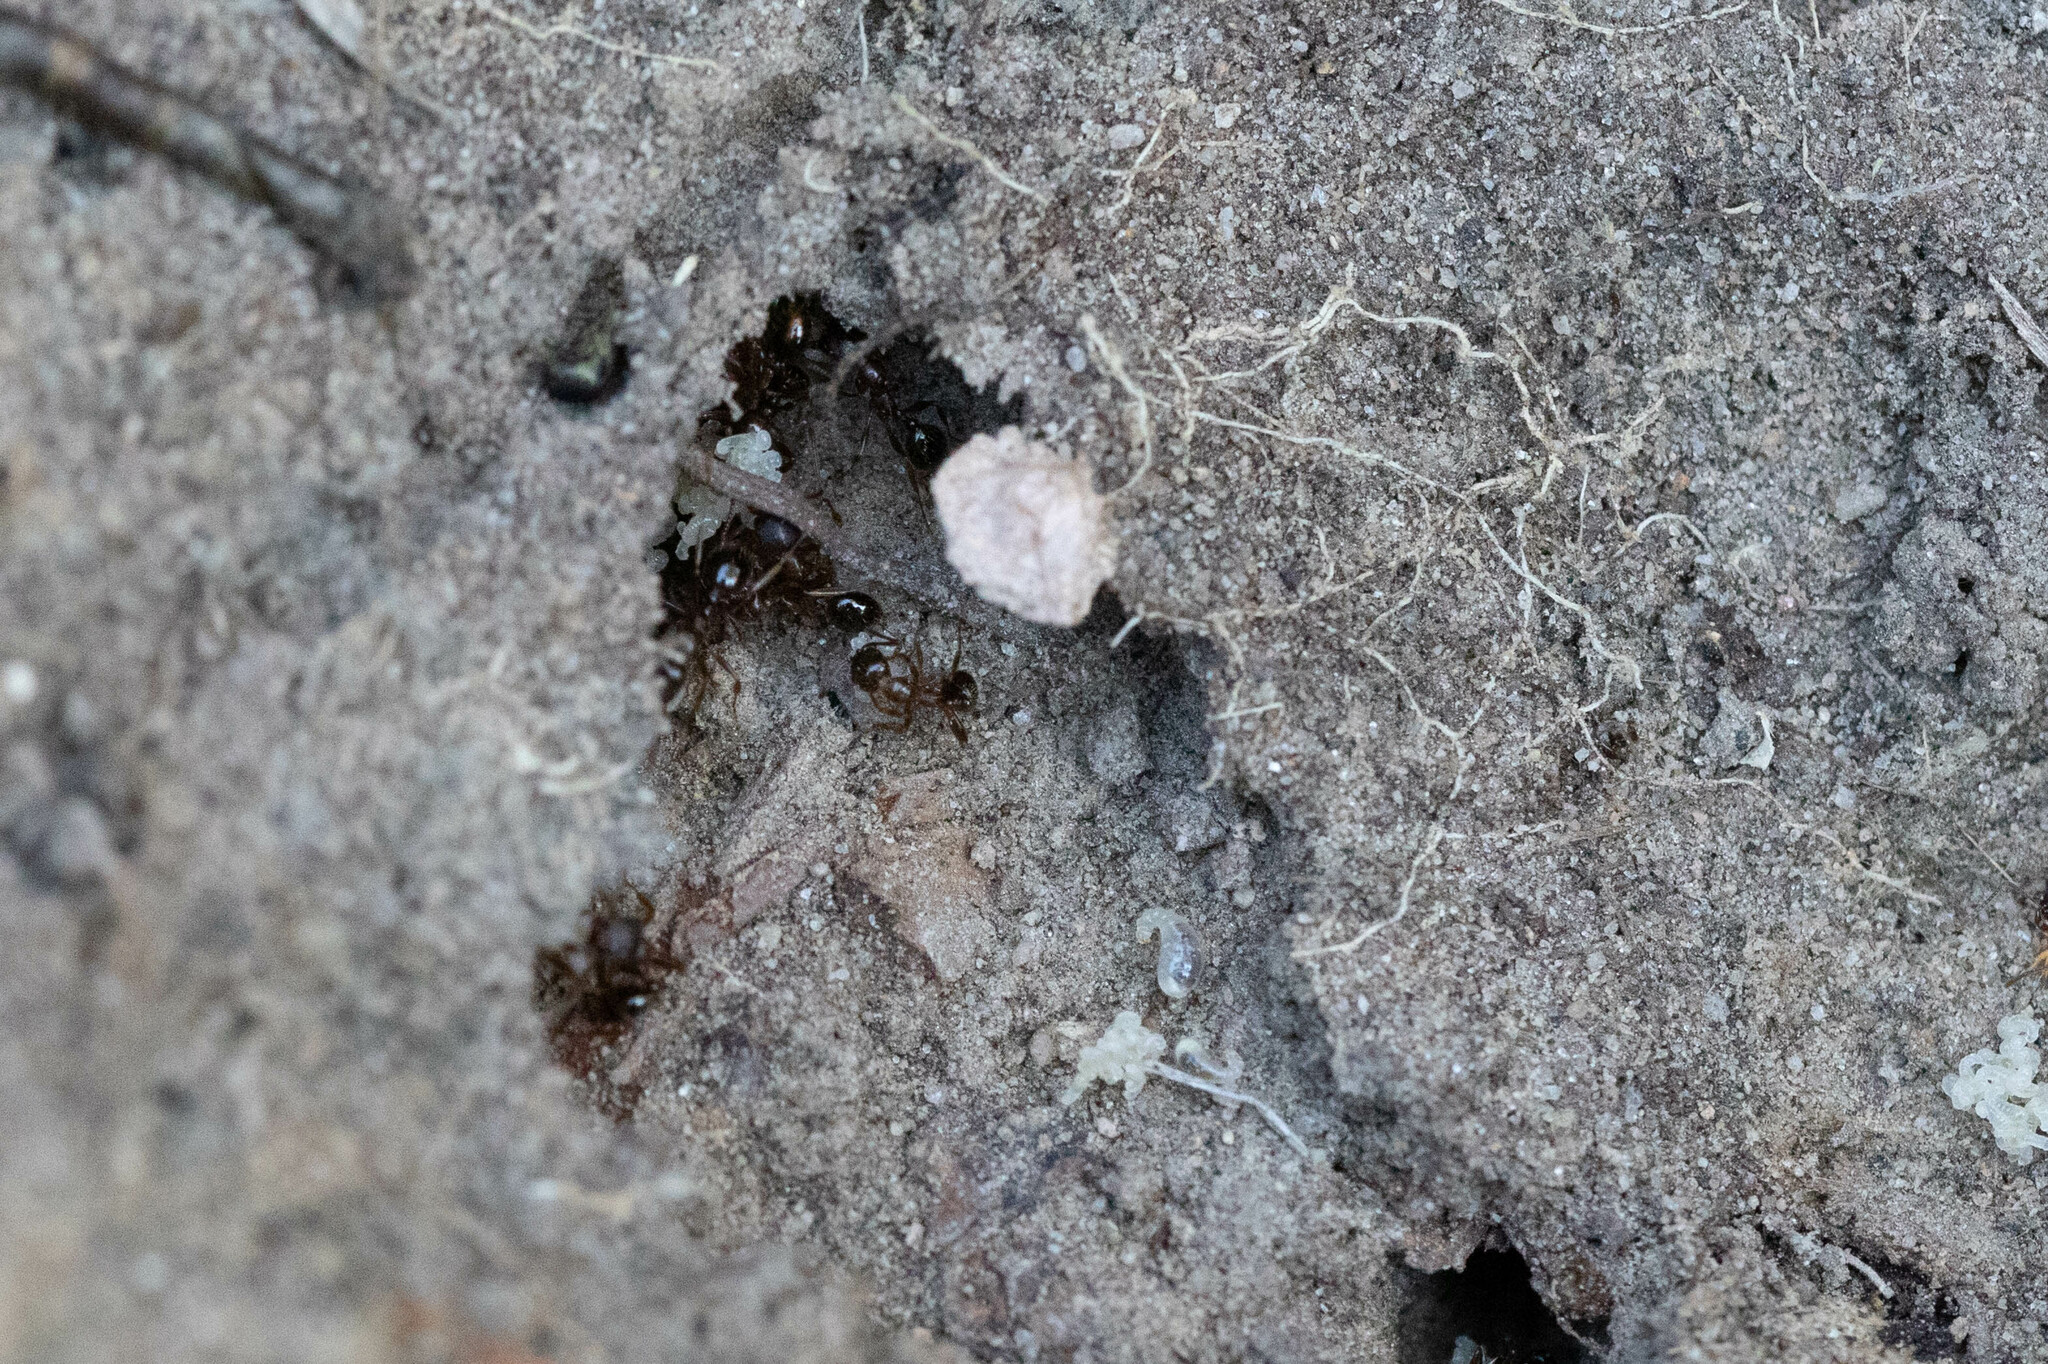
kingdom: Animalia
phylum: Arthropoda
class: Insecta
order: Hymenoptera
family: Formicidae
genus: Aphaenogaster
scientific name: Aphaenogaster occidentalis
